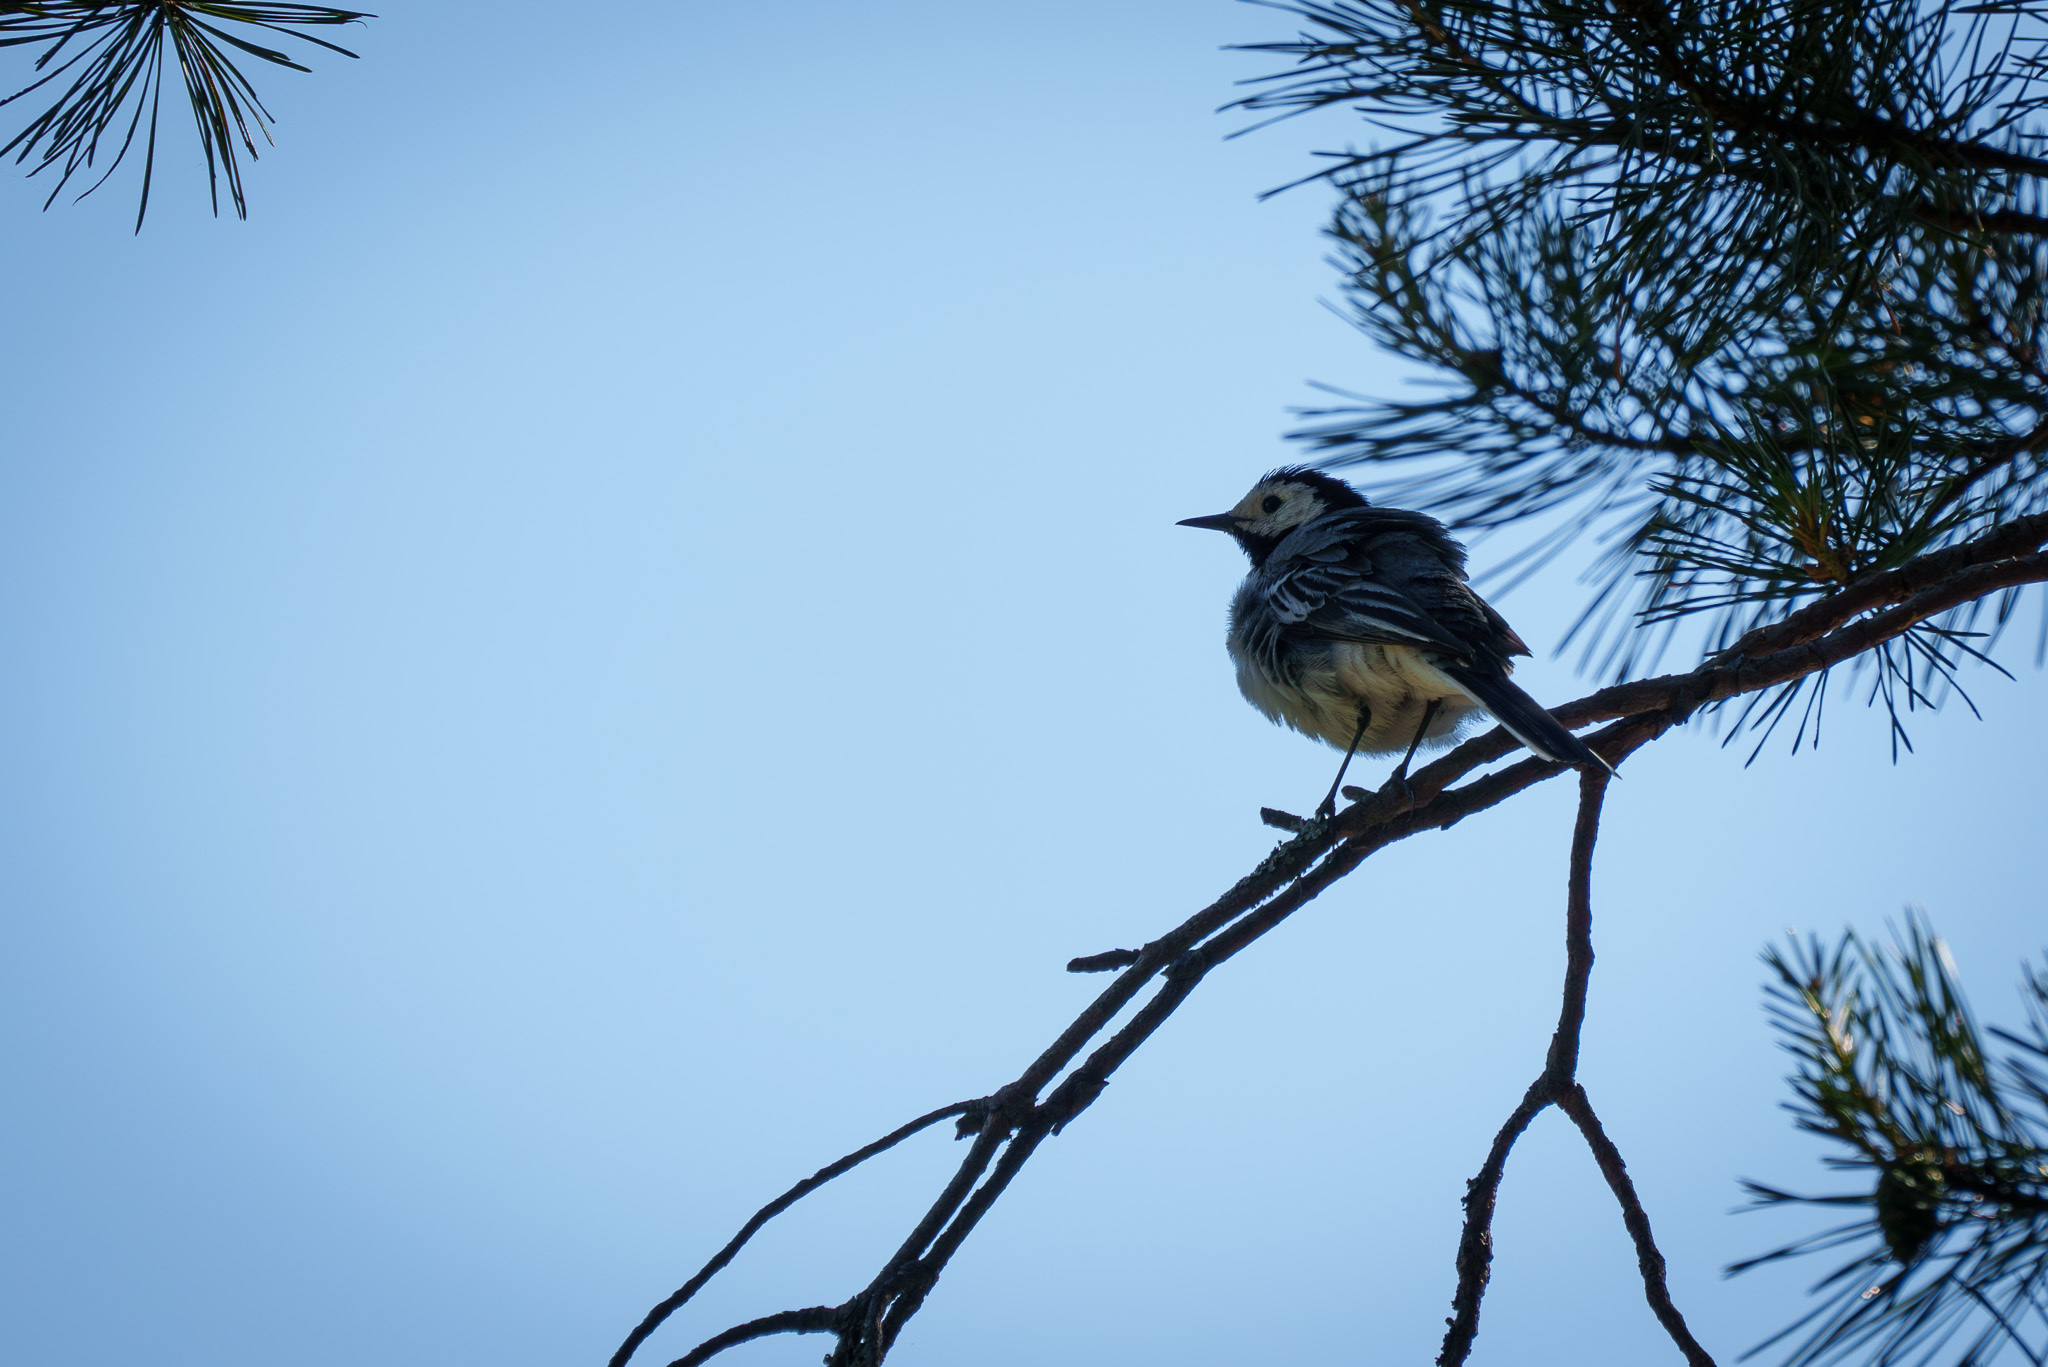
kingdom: Animalia
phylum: Chordata
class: Aves
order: Passeriformes
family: Motacillidae
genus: Motacilla
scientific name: Motacilla alba
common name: White wagtail
